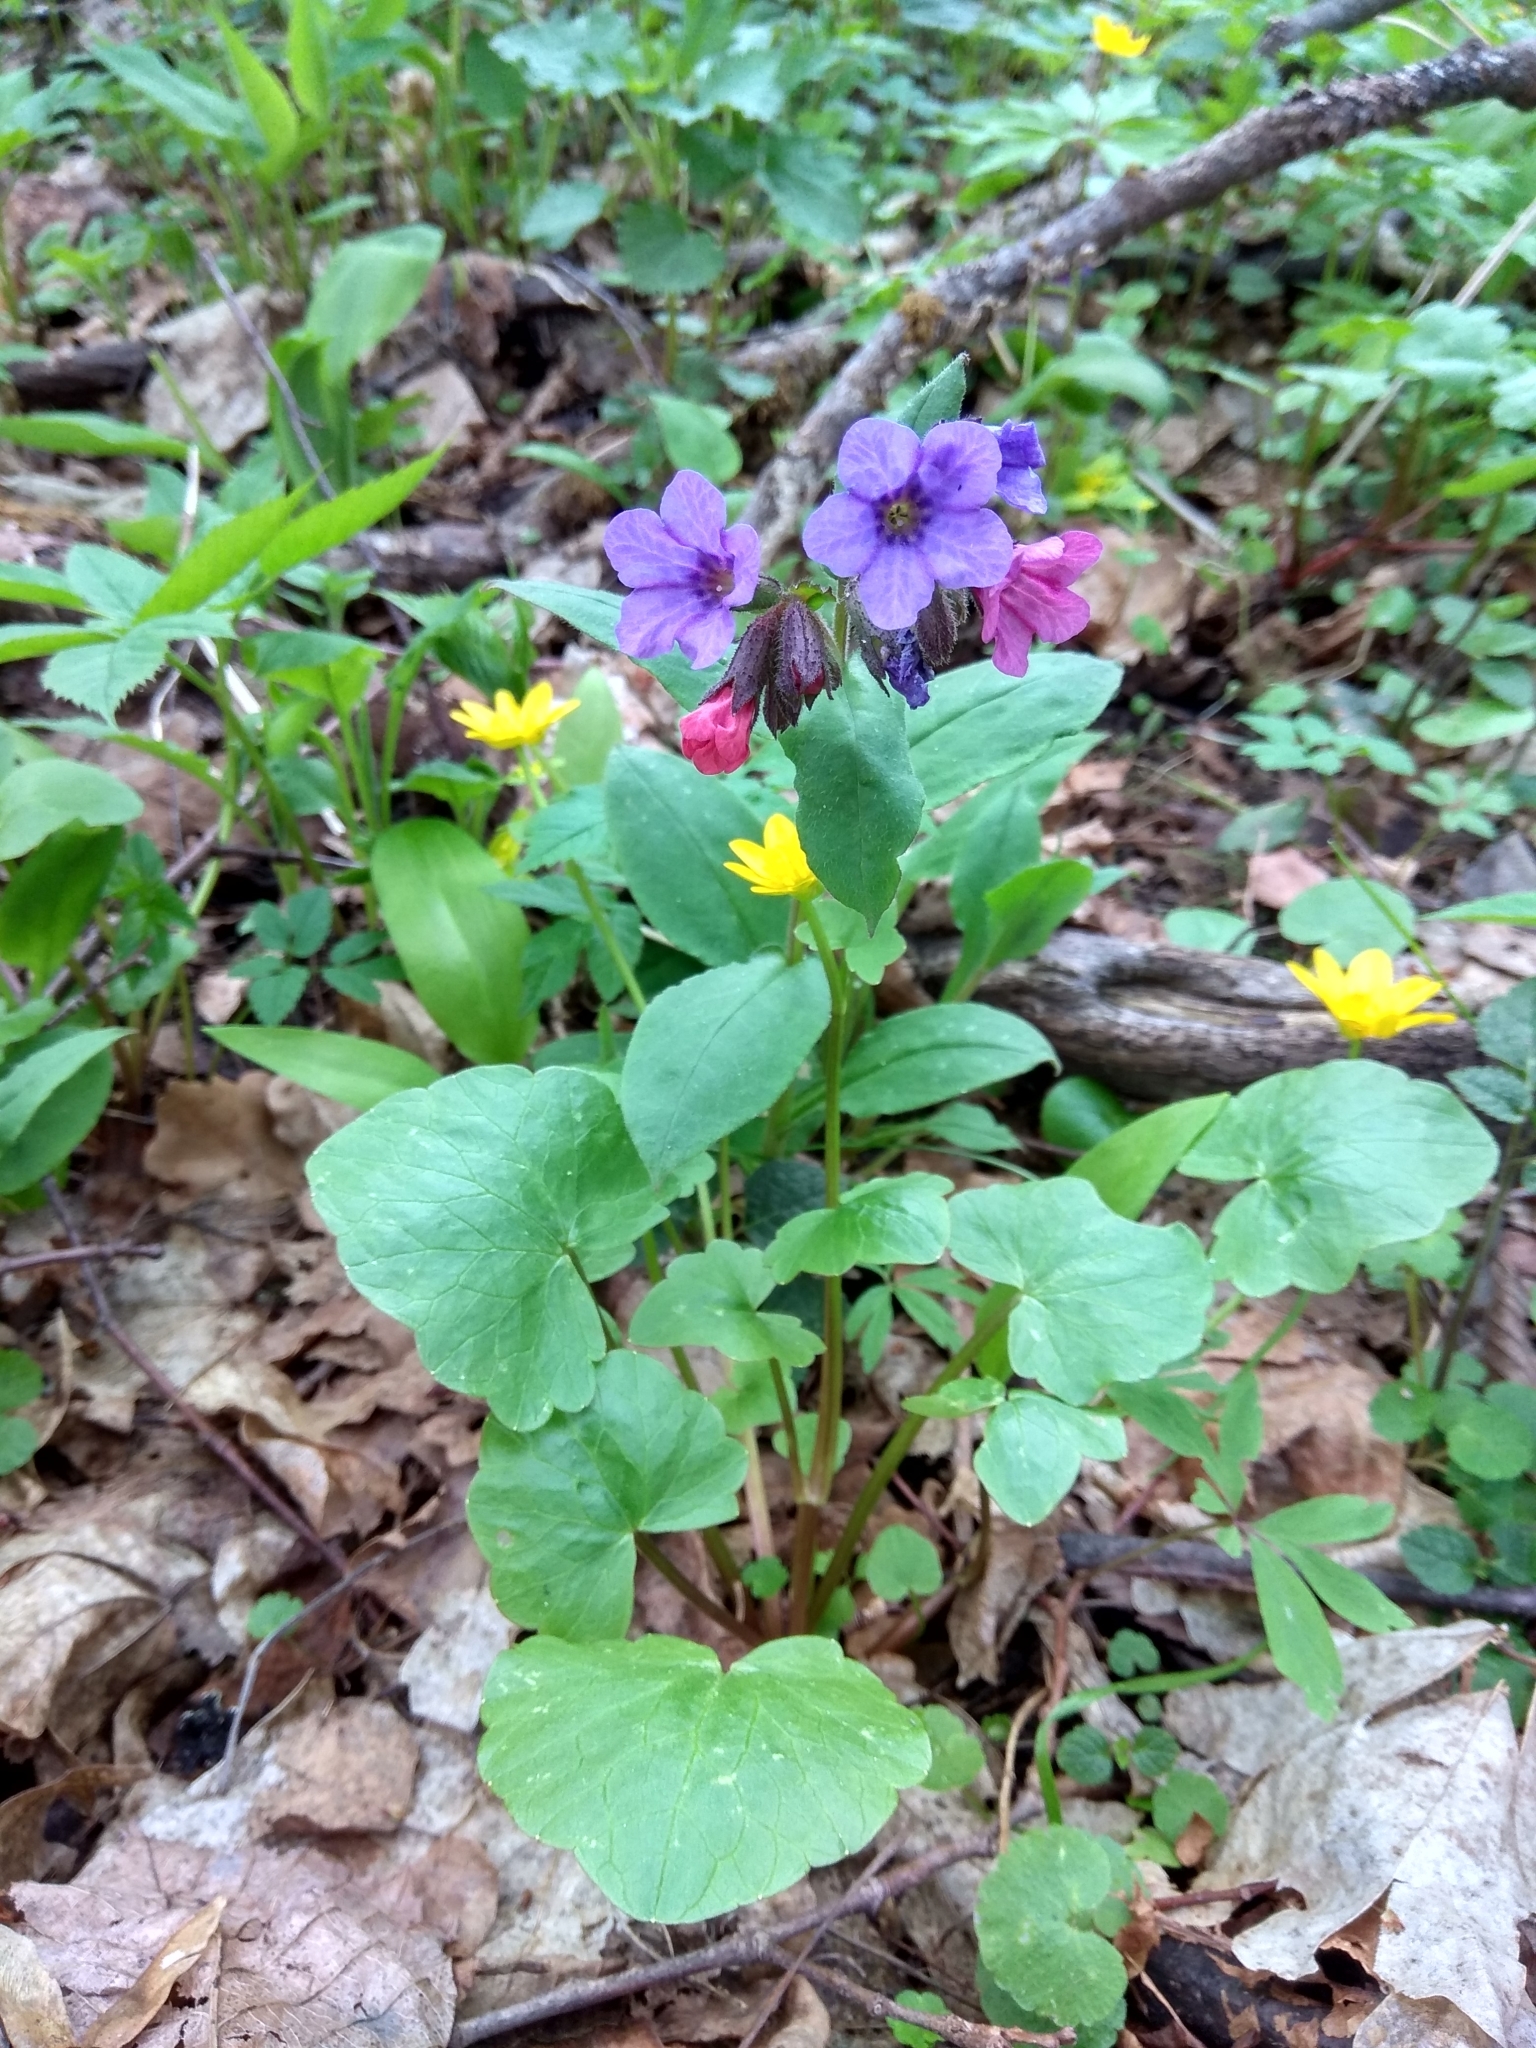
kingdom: Plantae
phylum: Tracheophyta
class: Magnoliopsida
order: Boraginales
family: Boraginaceae
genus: Pulmonaria
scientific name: Pulmonaria obscura
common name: Suffolk lungwort
